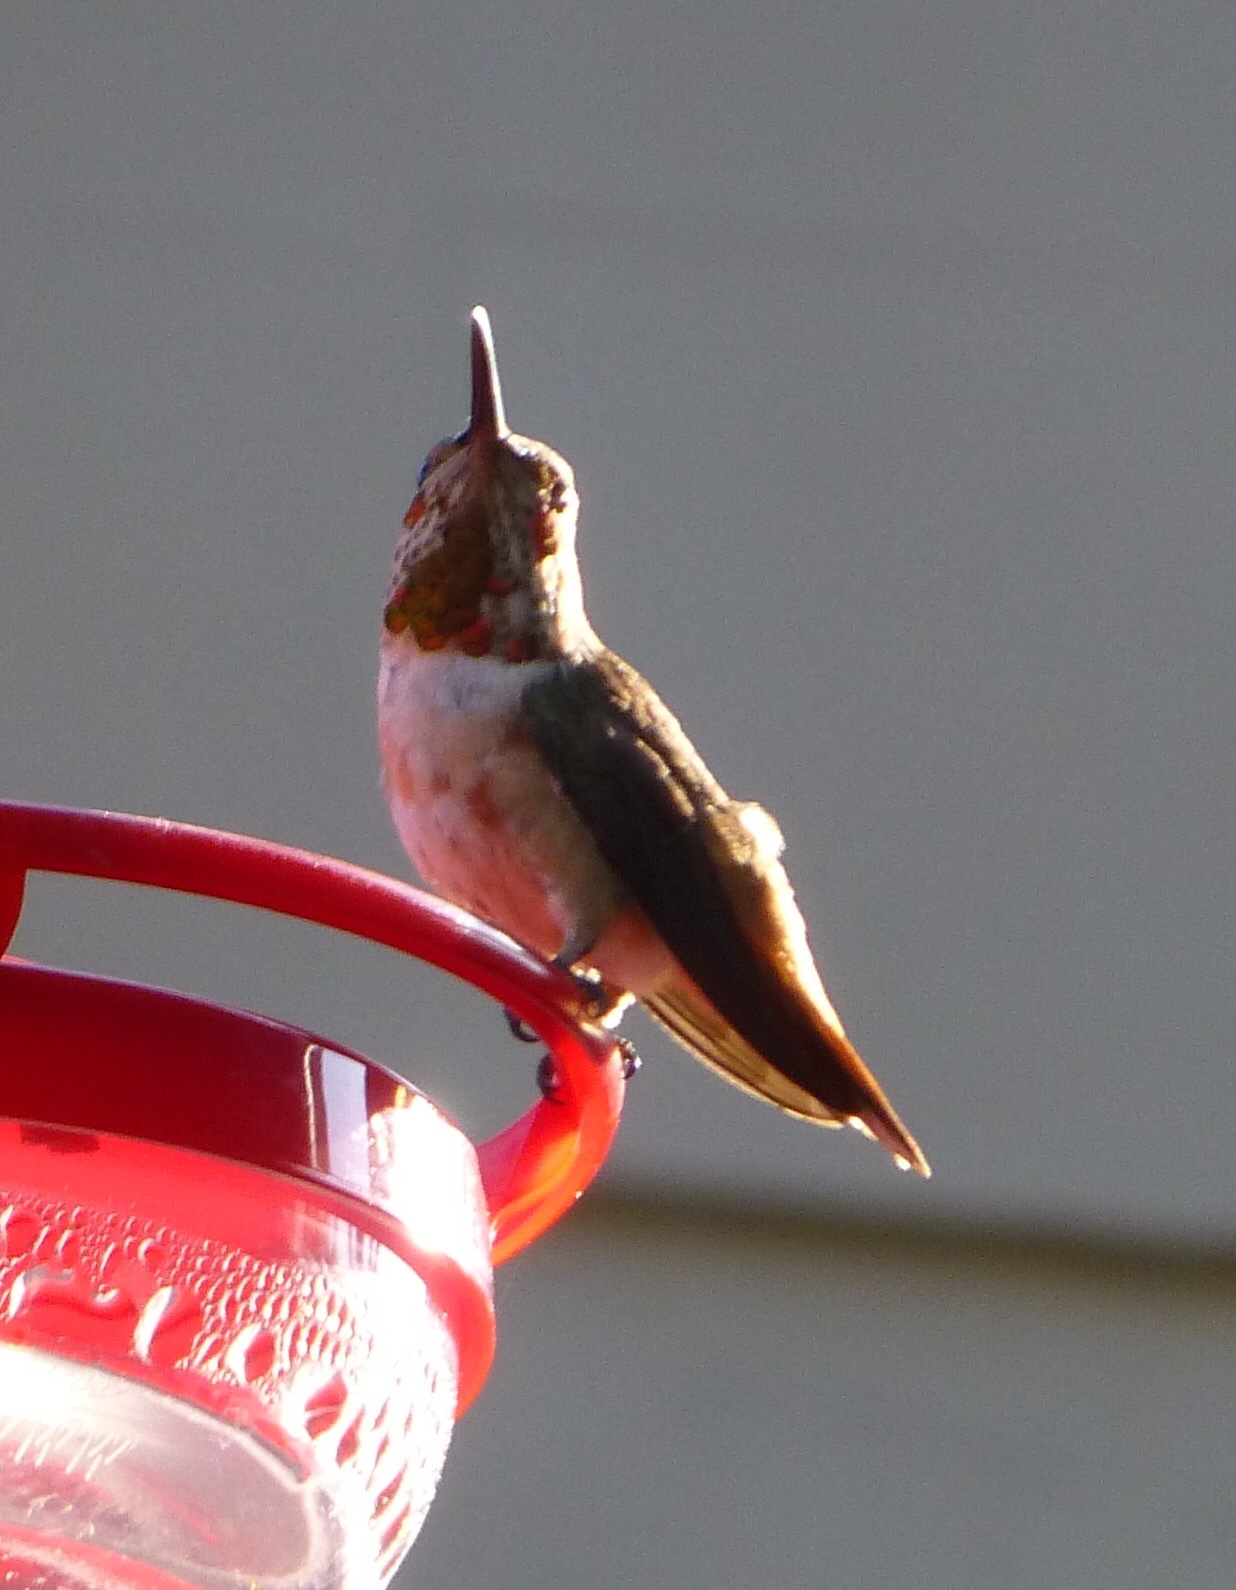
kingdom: Animalia
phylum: Chordata
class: Aves
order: Apodiformes
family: Trochilidae
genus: Selasphorus
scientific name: Selasphorus sasin
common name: Allen's hummingbird
